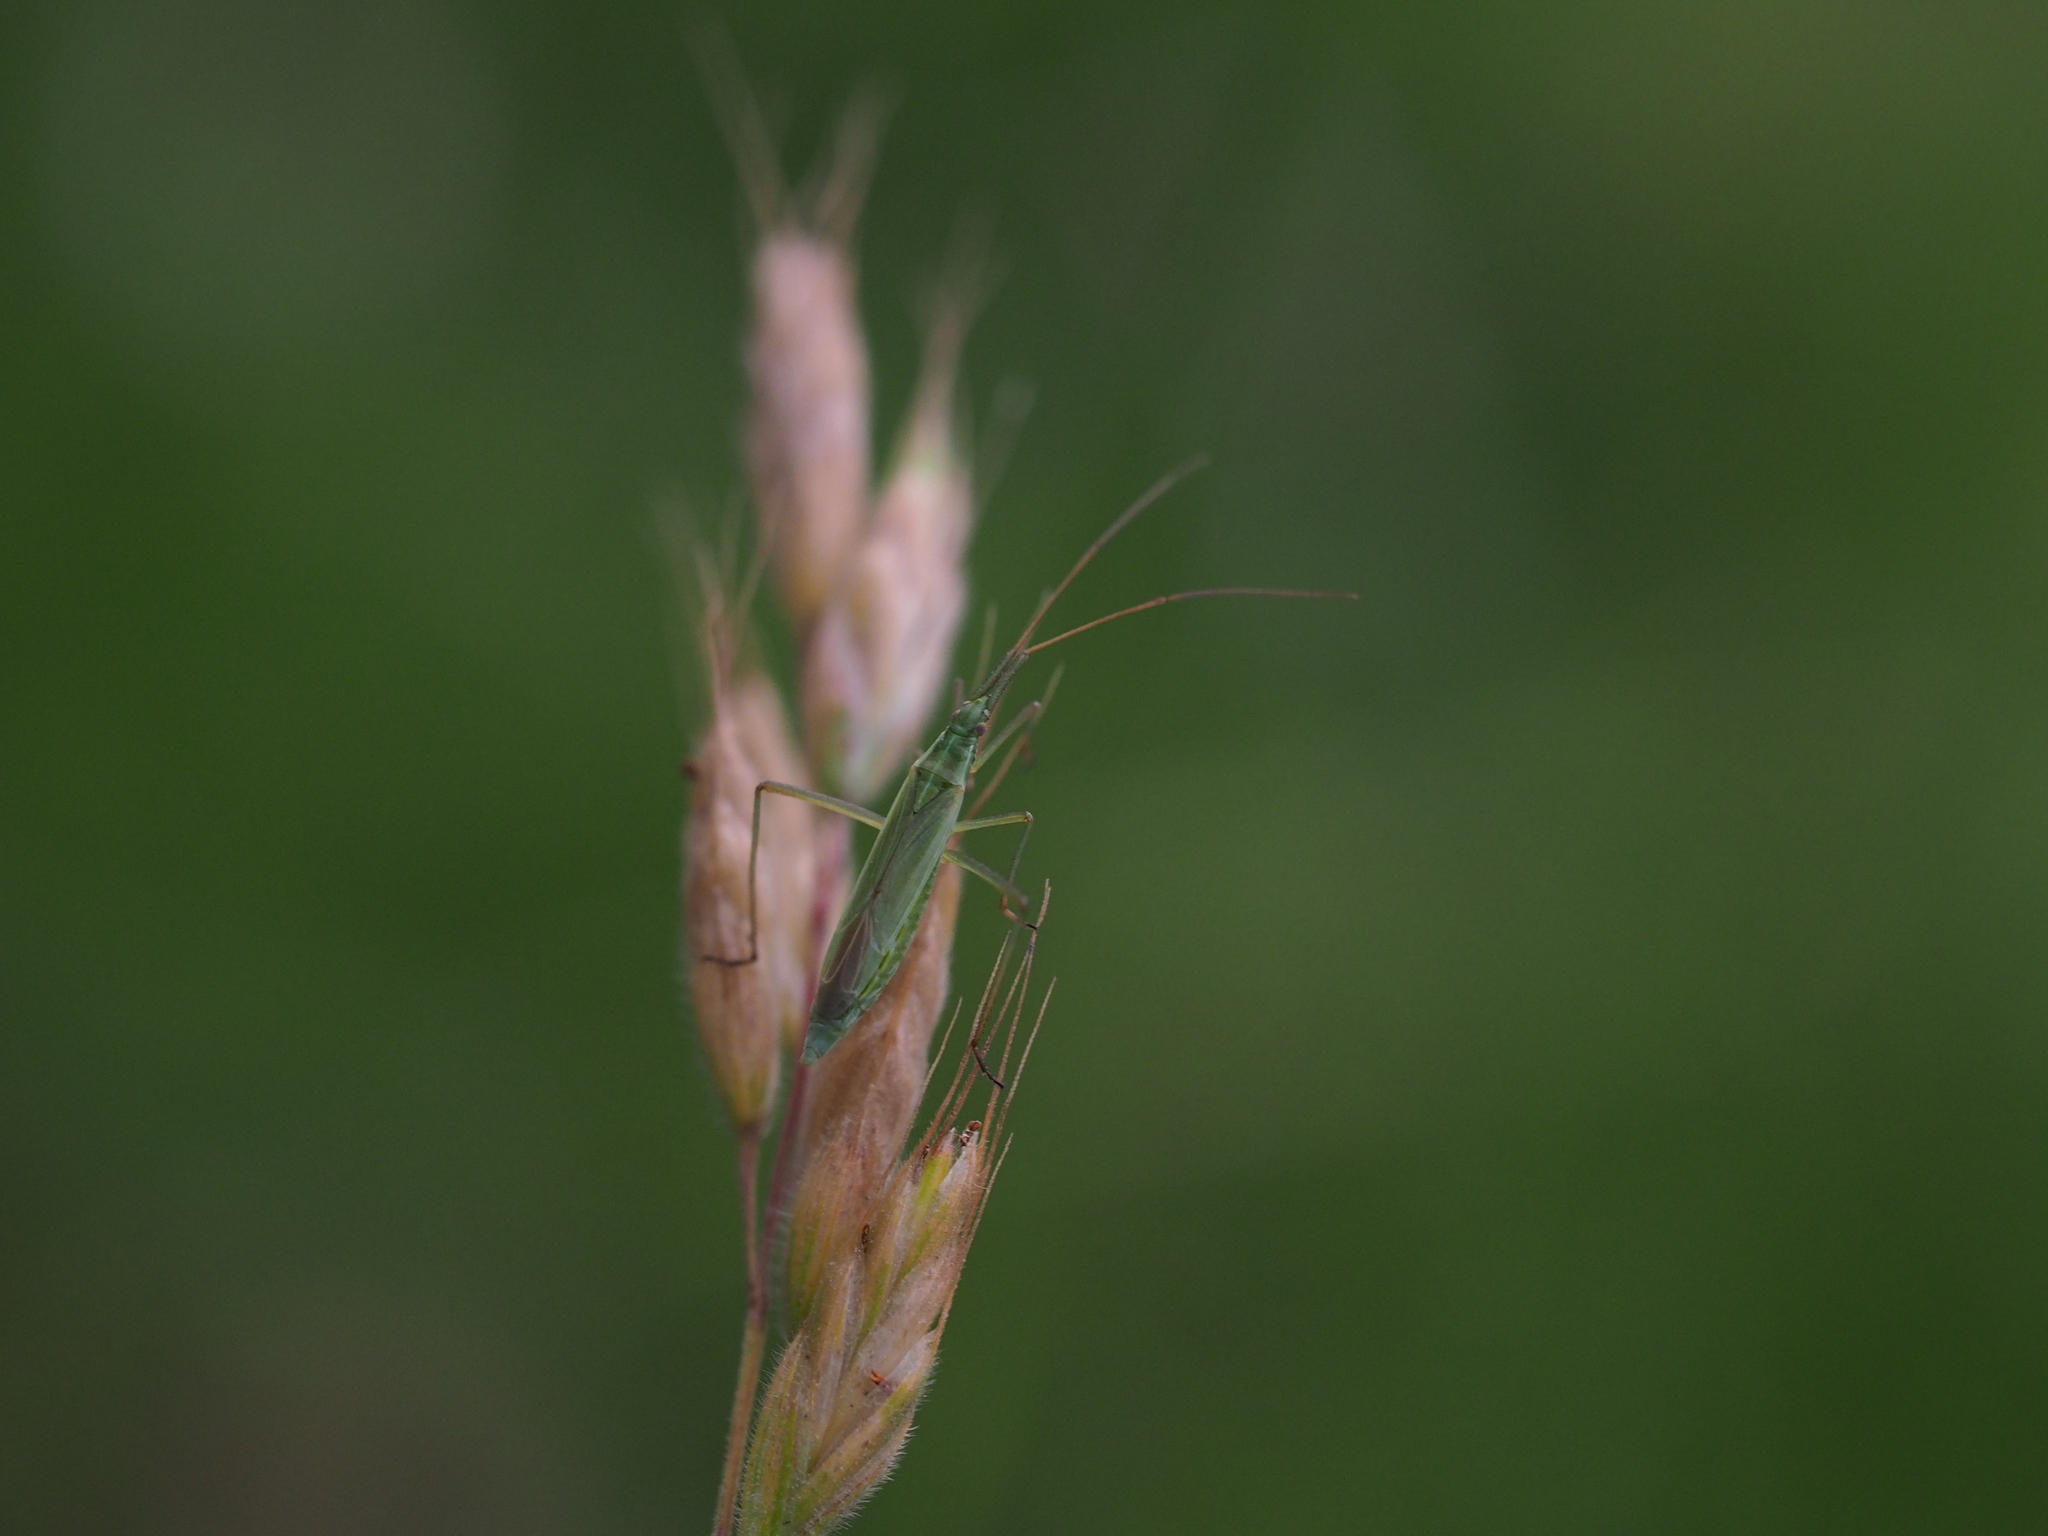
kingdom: Animalia
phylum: Arthropoda
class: Insecta
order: Hemiptera
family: Miridae
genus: Megaloceroea
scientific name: Megaloceroea recticornis
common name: Plant bug
